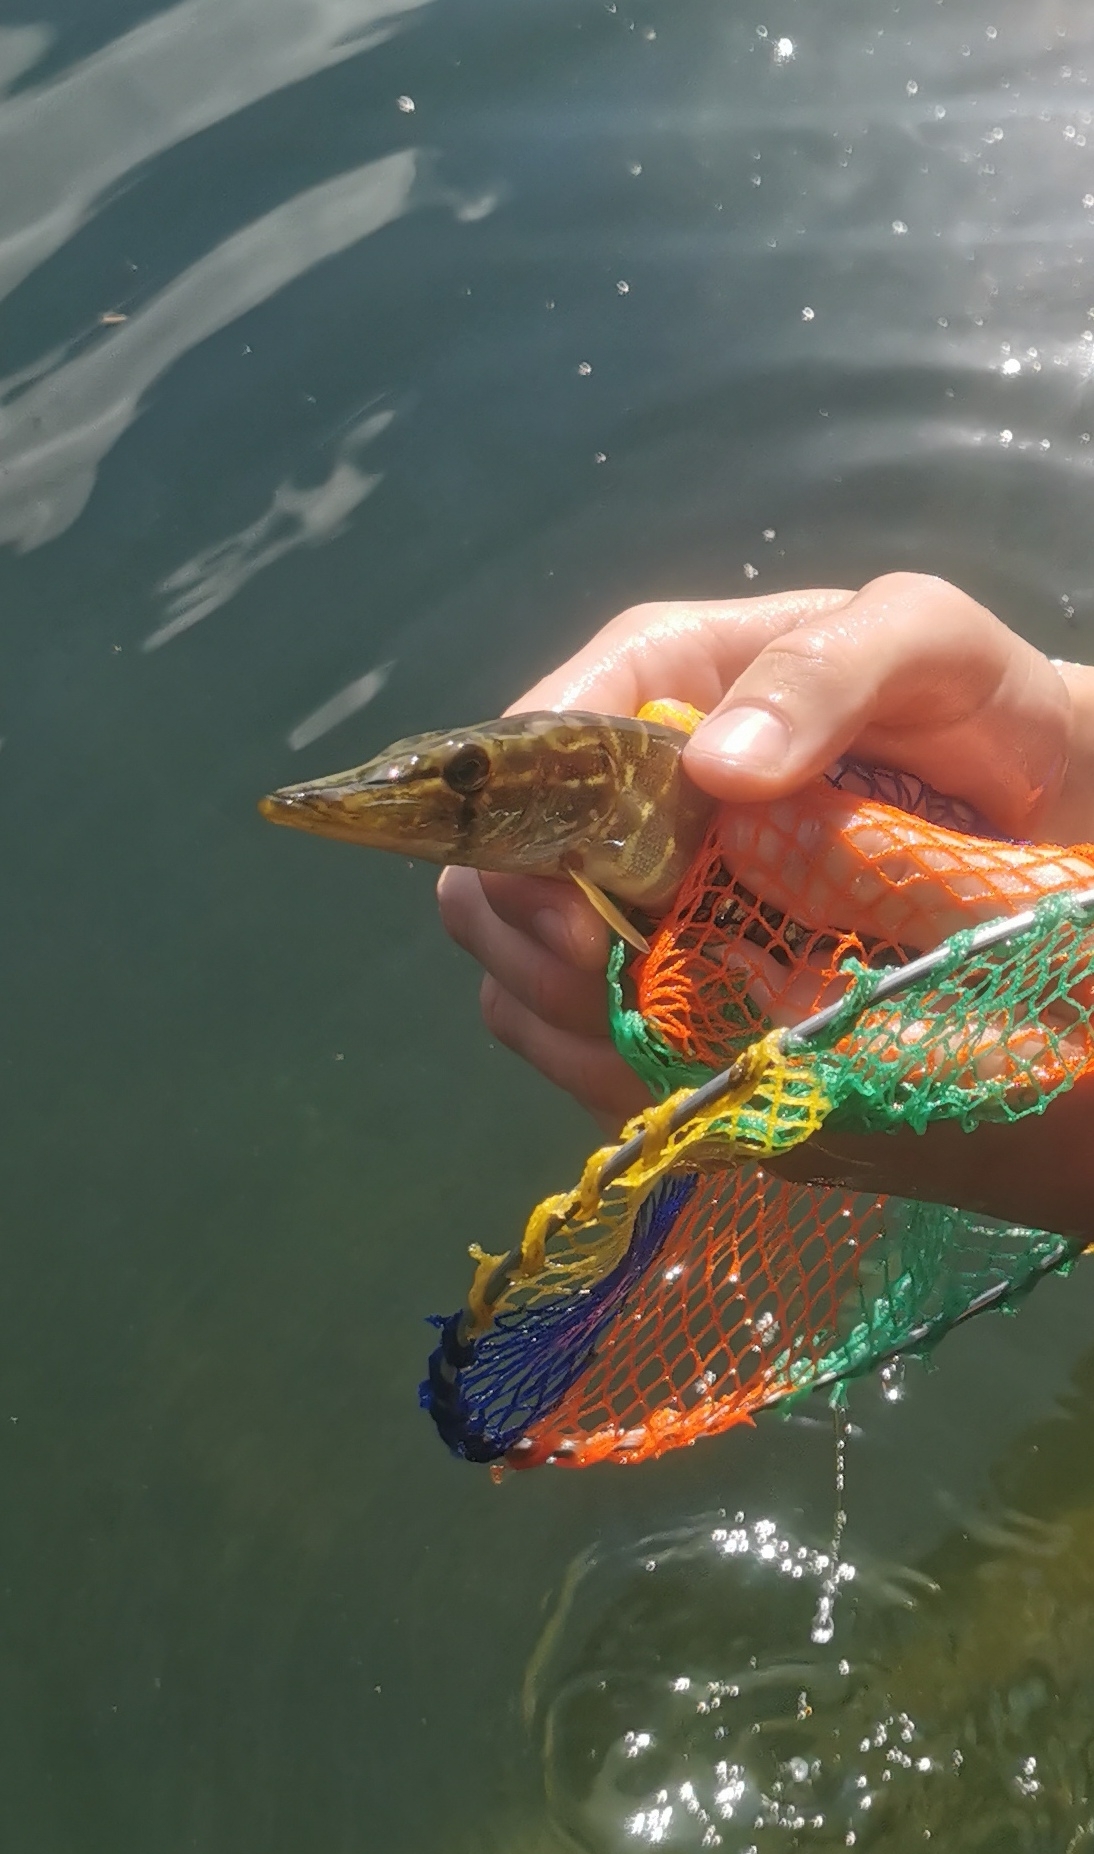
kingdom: Animalia
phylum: Chordata
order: Esociformes
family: Esocidae
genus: Esox
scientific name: Esox lucius
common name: Northern pike
